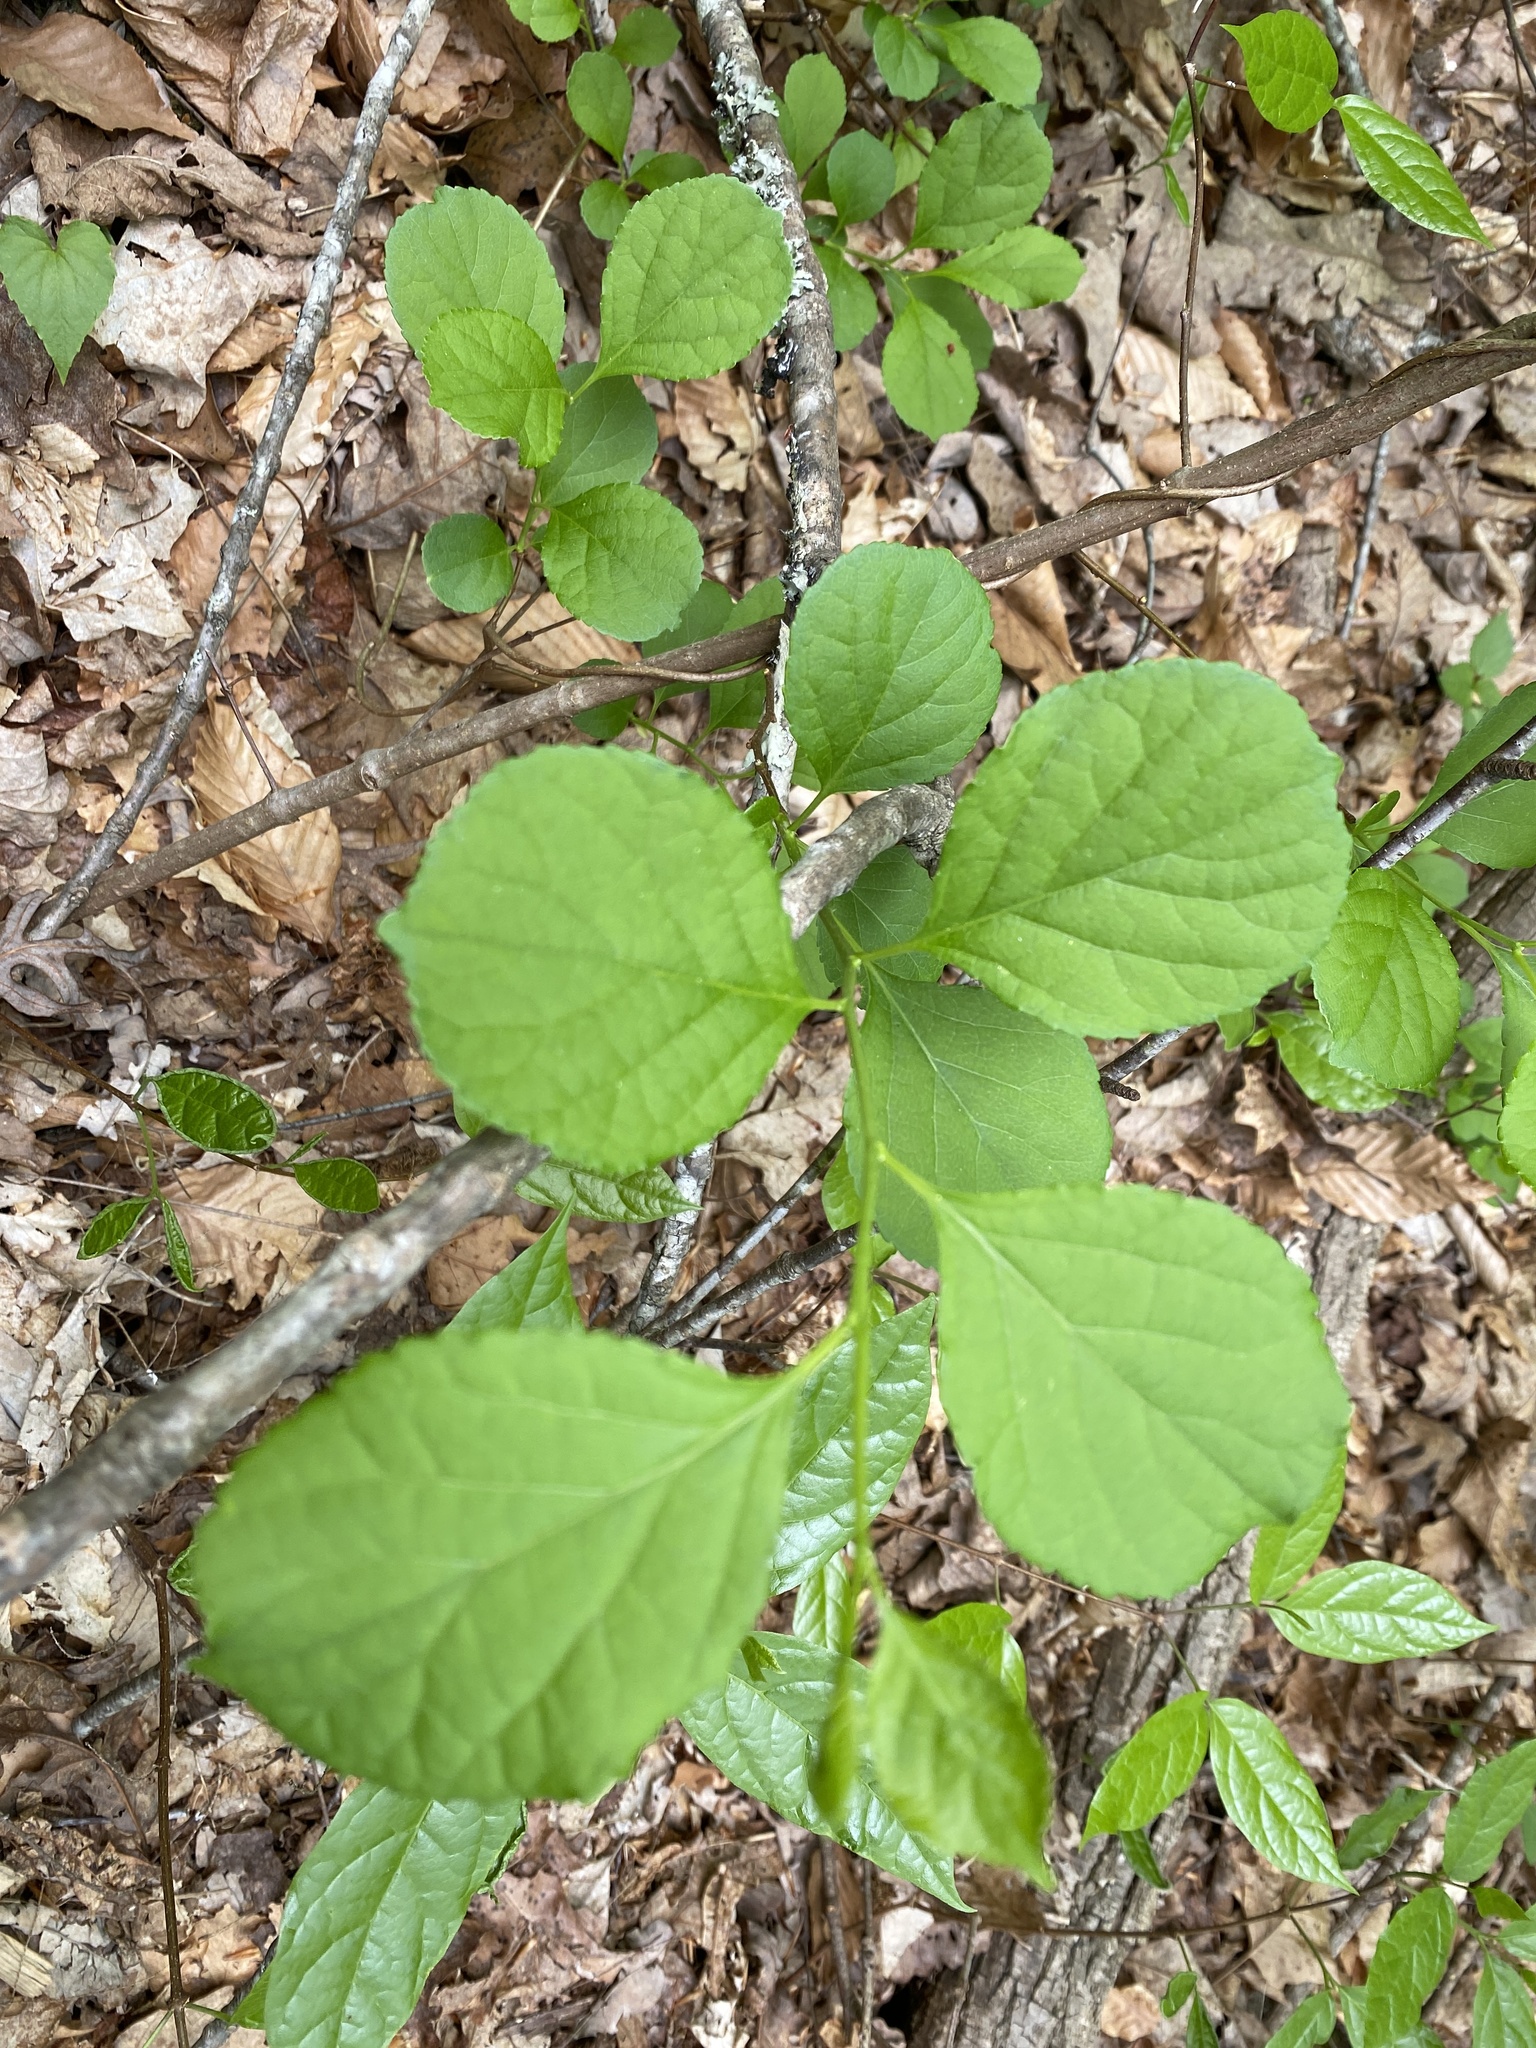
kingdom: Plantae
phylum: Tracheophyta
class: Magnoliopsida
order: Celastrales
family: Celastraceae
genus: Celastrus
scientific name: Celastrus orbiculatus
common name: Oriental bittersweet
